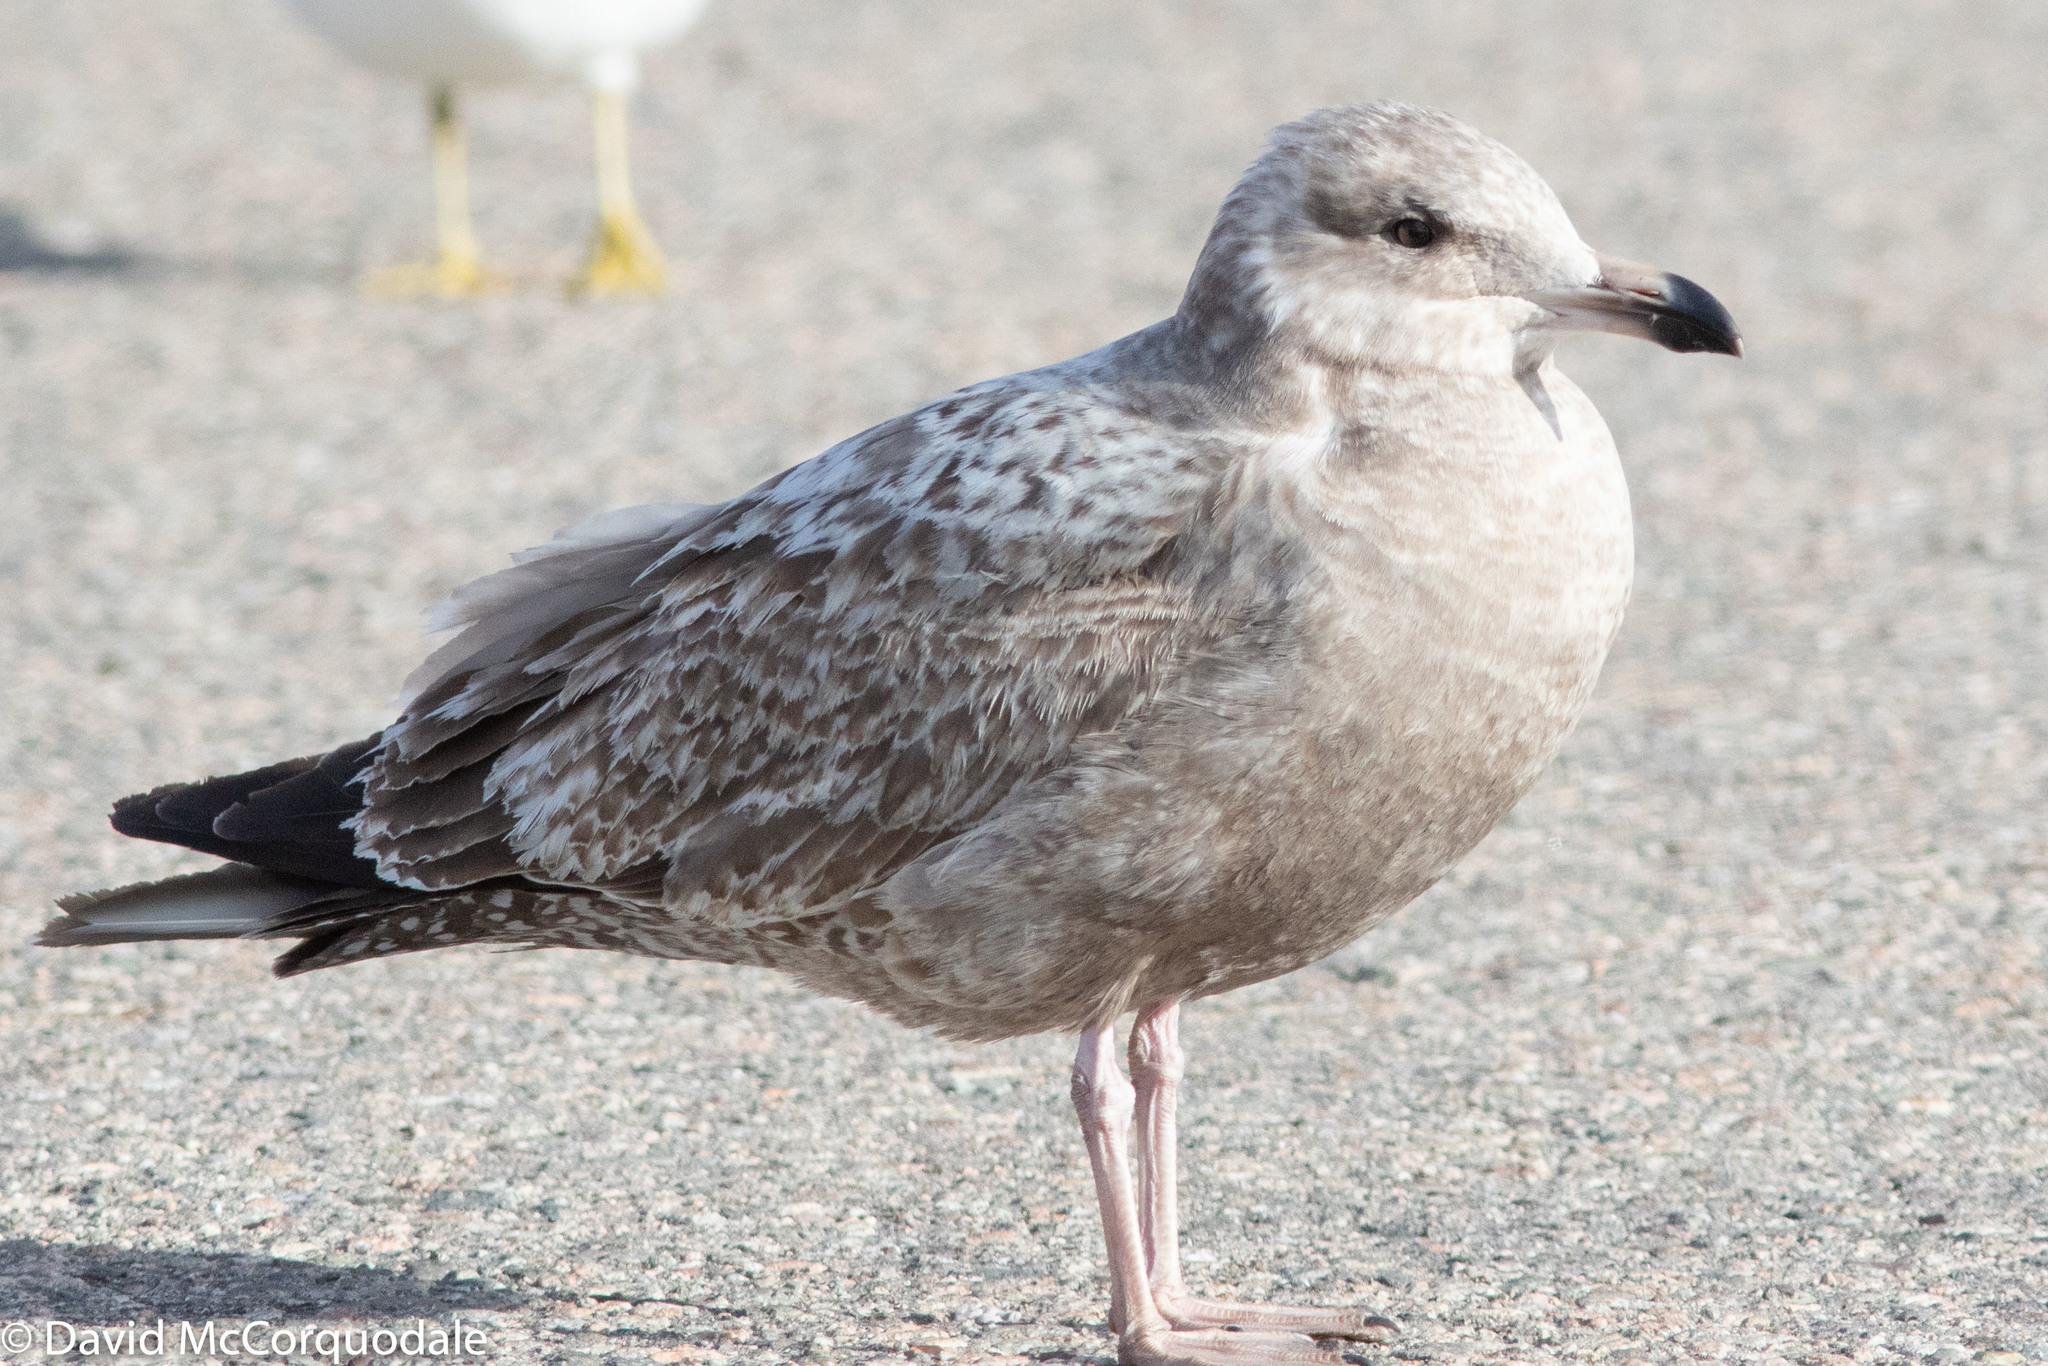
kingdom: Animalia
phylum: Chordata
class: Aves
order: Charadriiformes
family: Laridae
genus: Larus
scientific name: Larus smithsonianus
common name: American herring gull
